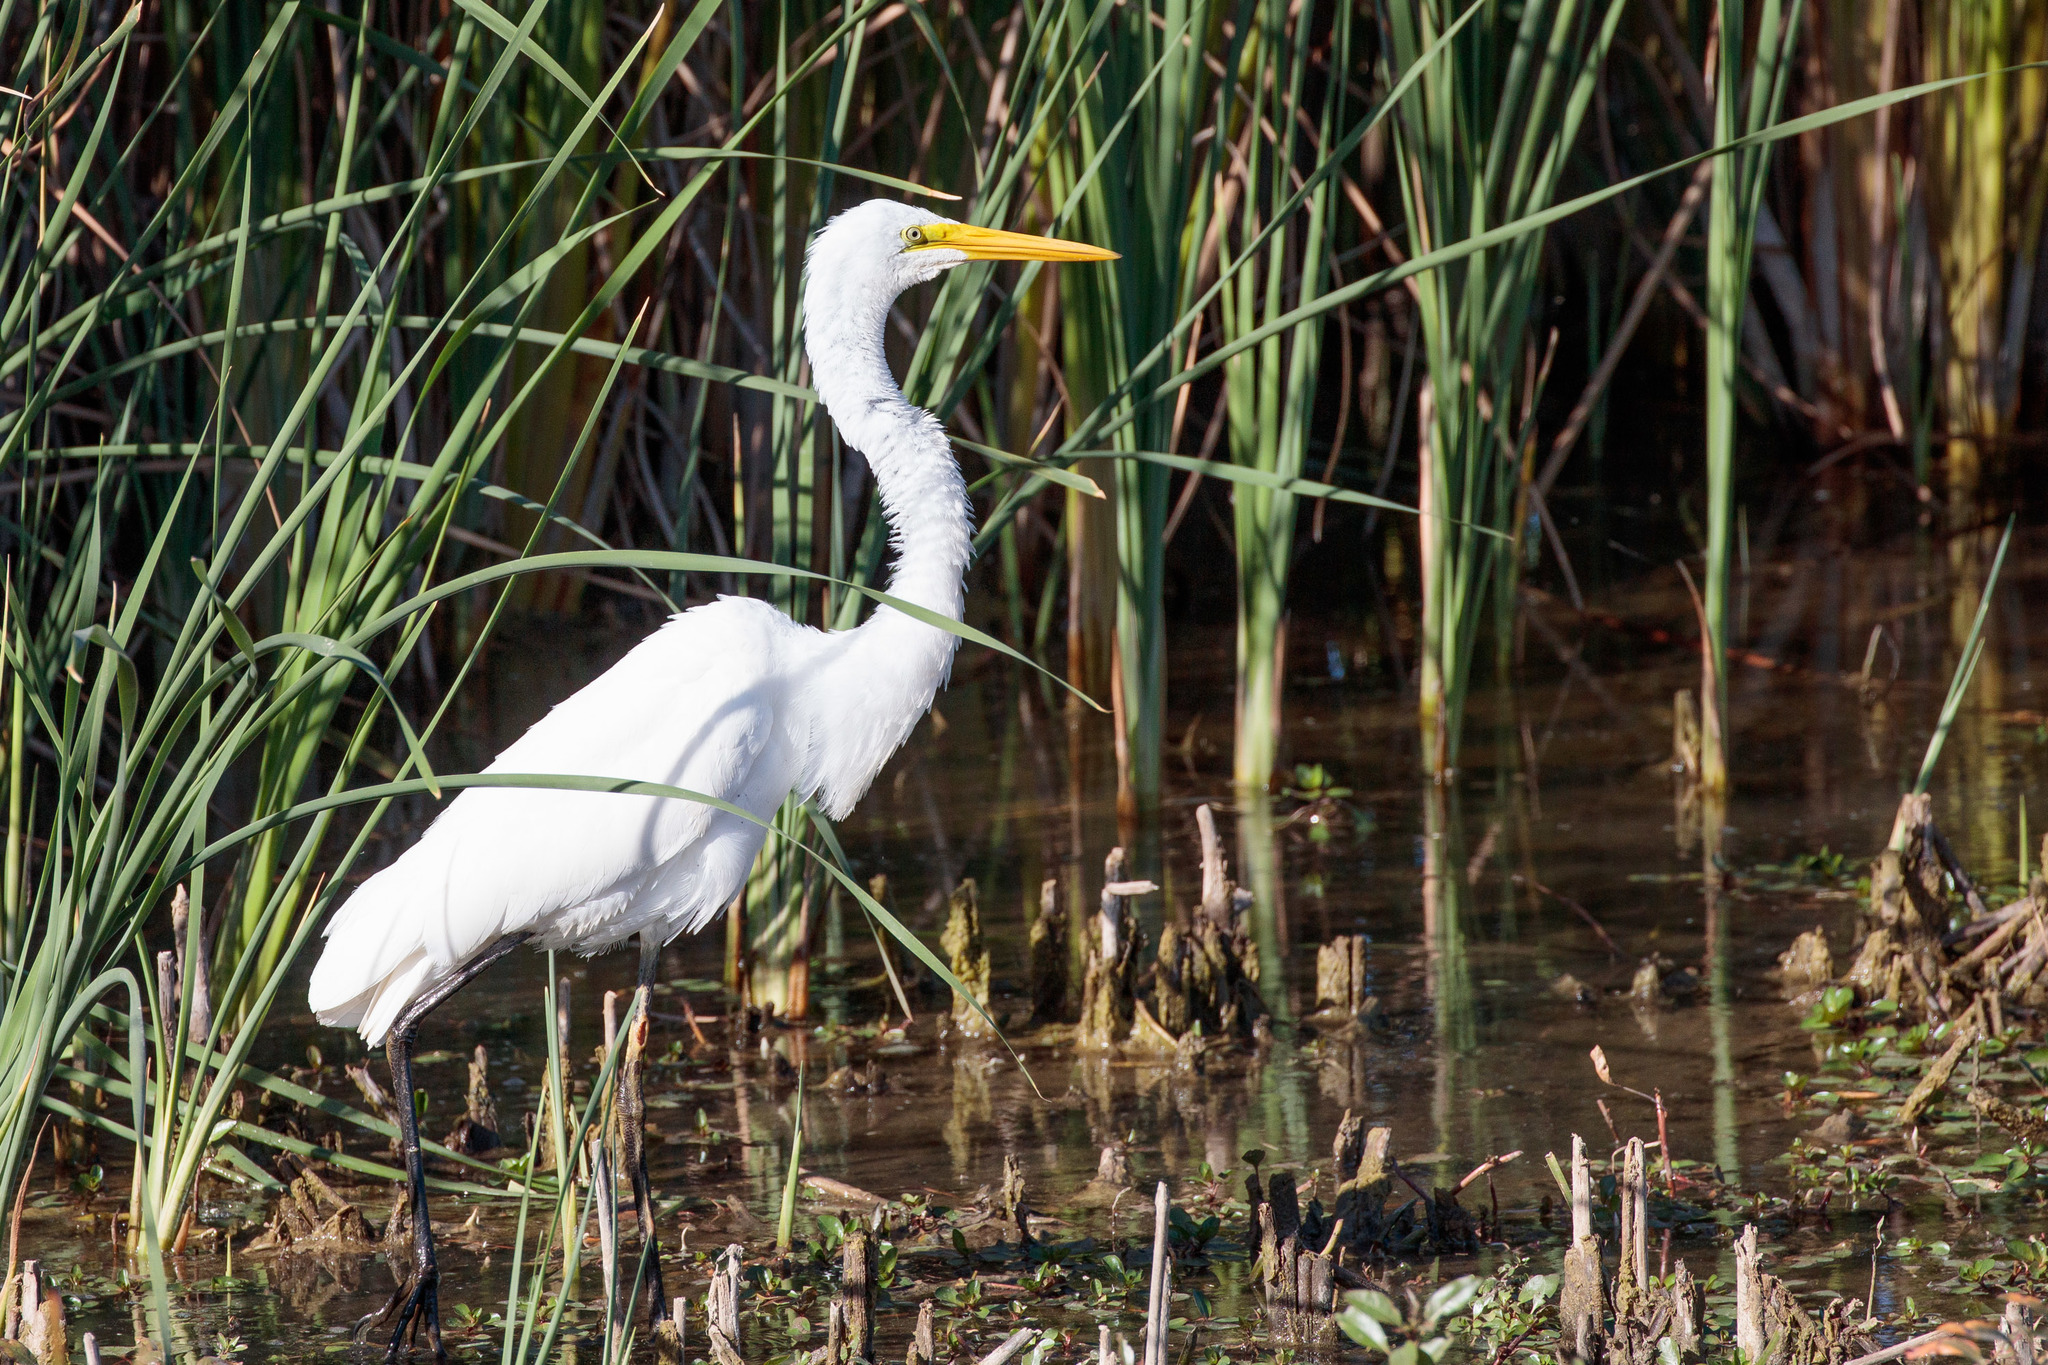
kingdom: Animalia
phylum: Chordata
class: Aves
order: Pelecaniformes
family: Ardeidae
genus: Ardea
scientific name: Ardea alba
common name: Great egret
